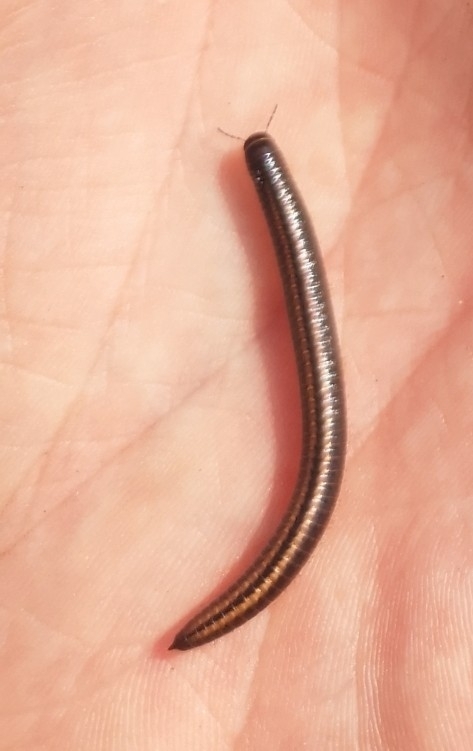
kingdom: Animalia
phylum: Arthropoda
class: Diplopoda
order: Julida
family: Julidae
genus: Ommatoiulus
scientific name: Ommatoiulus sabulosus
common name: Striped millipede
